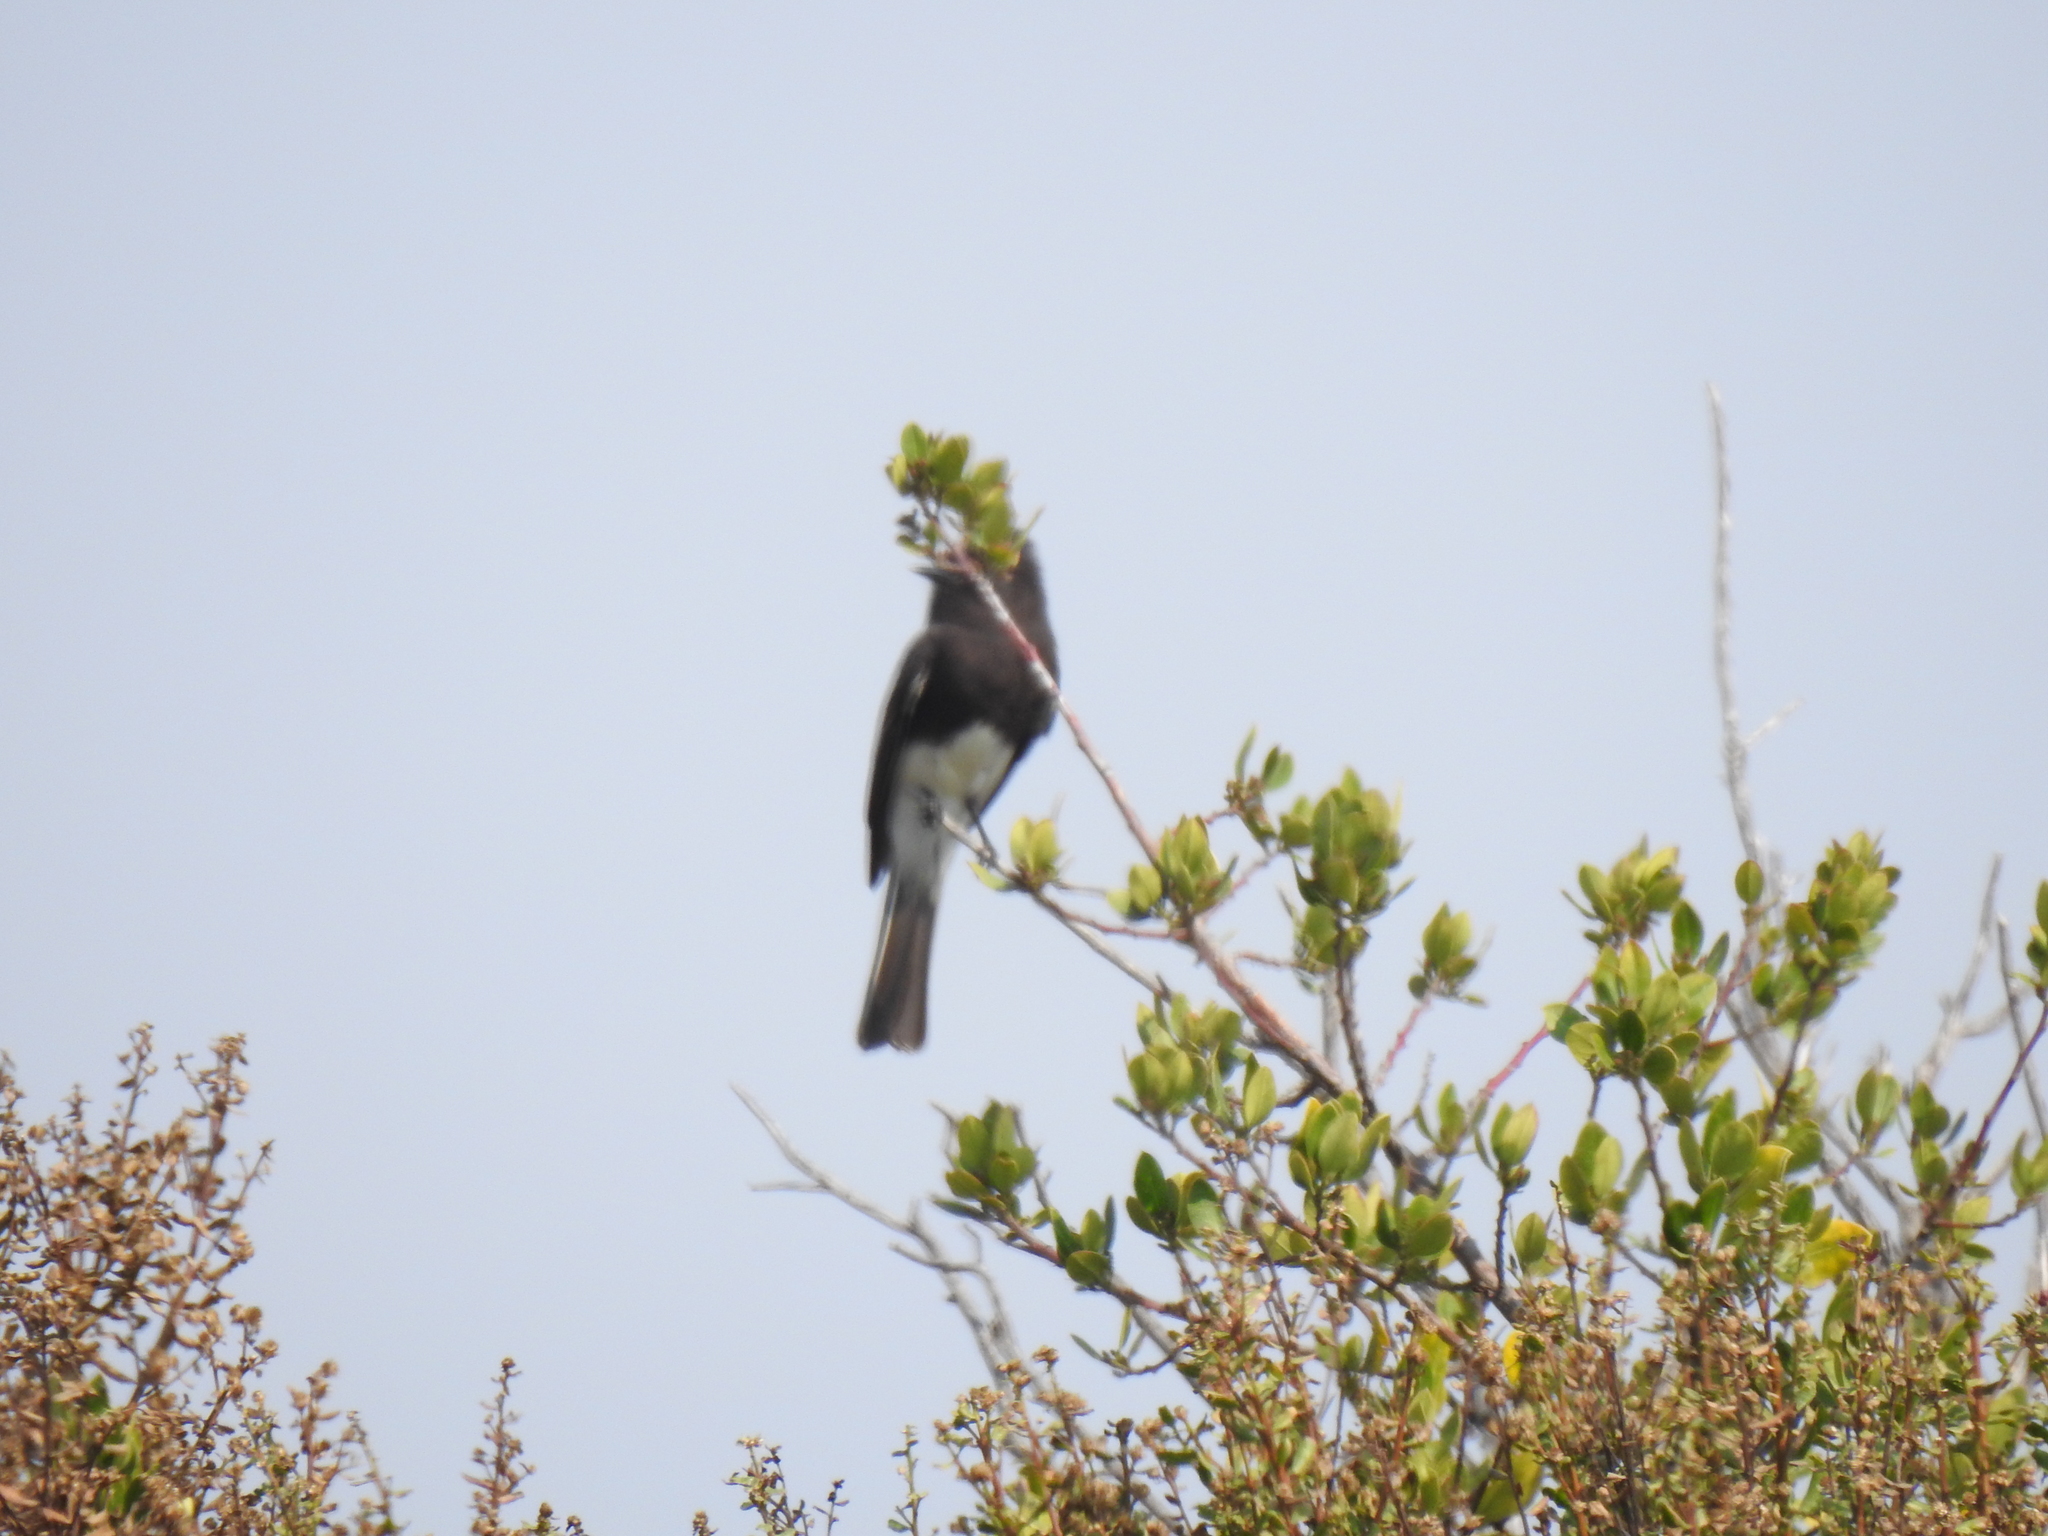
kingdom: Animalia
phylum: Chordata
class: Aves
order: Passeriformes
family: Tyrannidae
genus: Sayornis
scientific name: Sayornis nigricans
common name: Black phoebe
